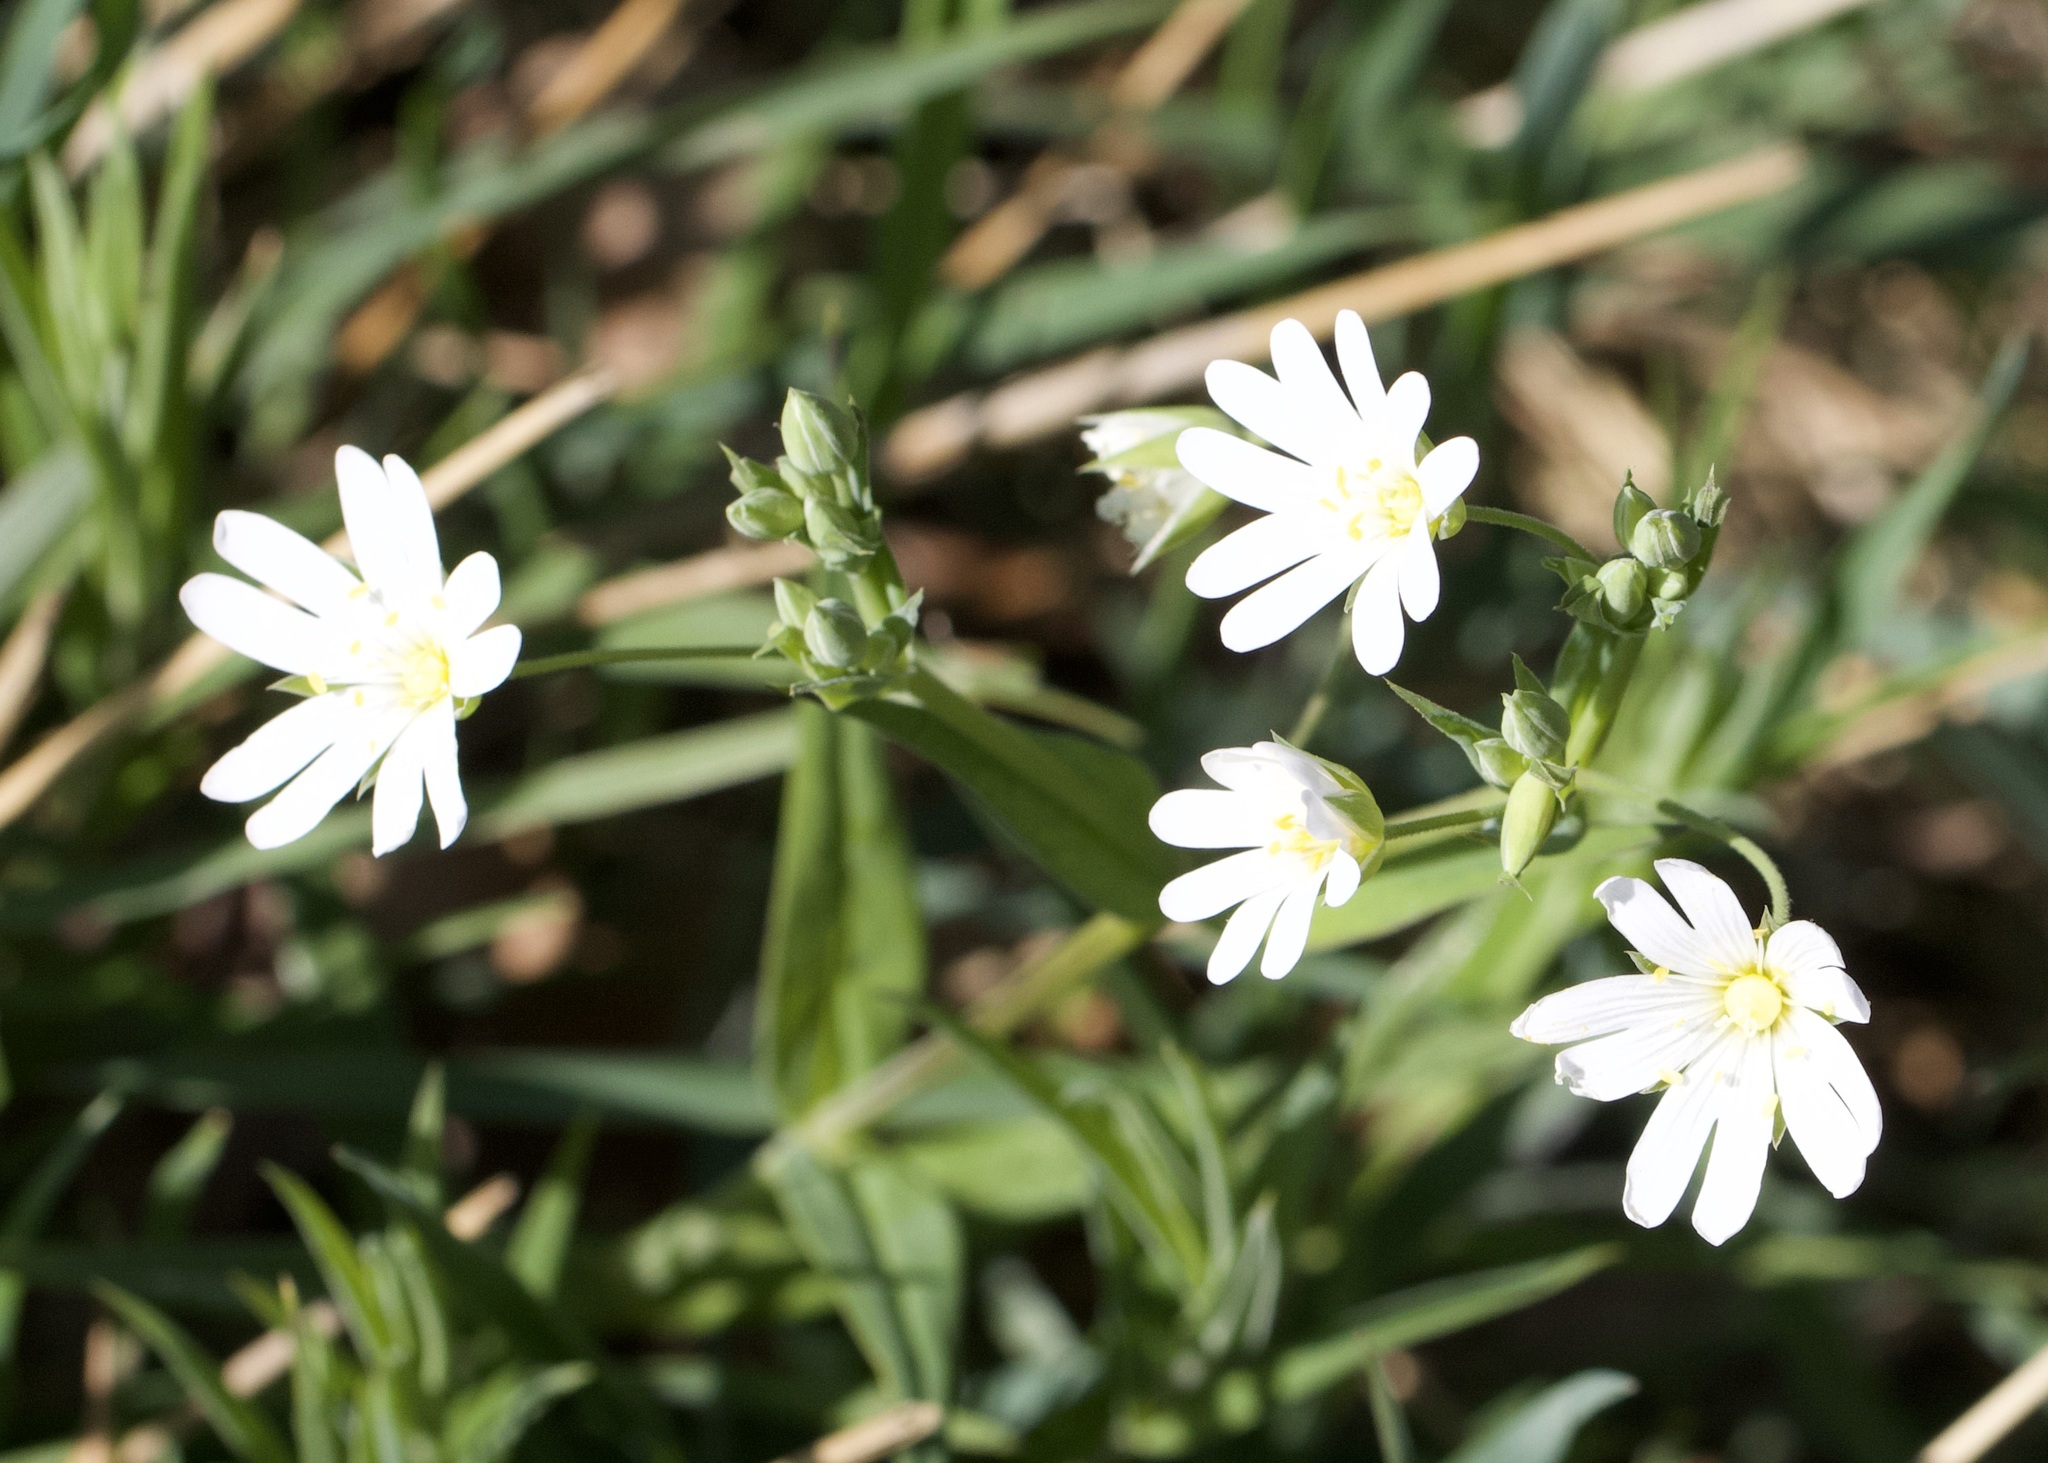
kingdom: Plantae
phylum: Tracheophyta
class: Magnoliopsida
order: Caryophyllales
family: Caryophyllaceae
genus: Rabelera
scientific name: Rabelera holostea
